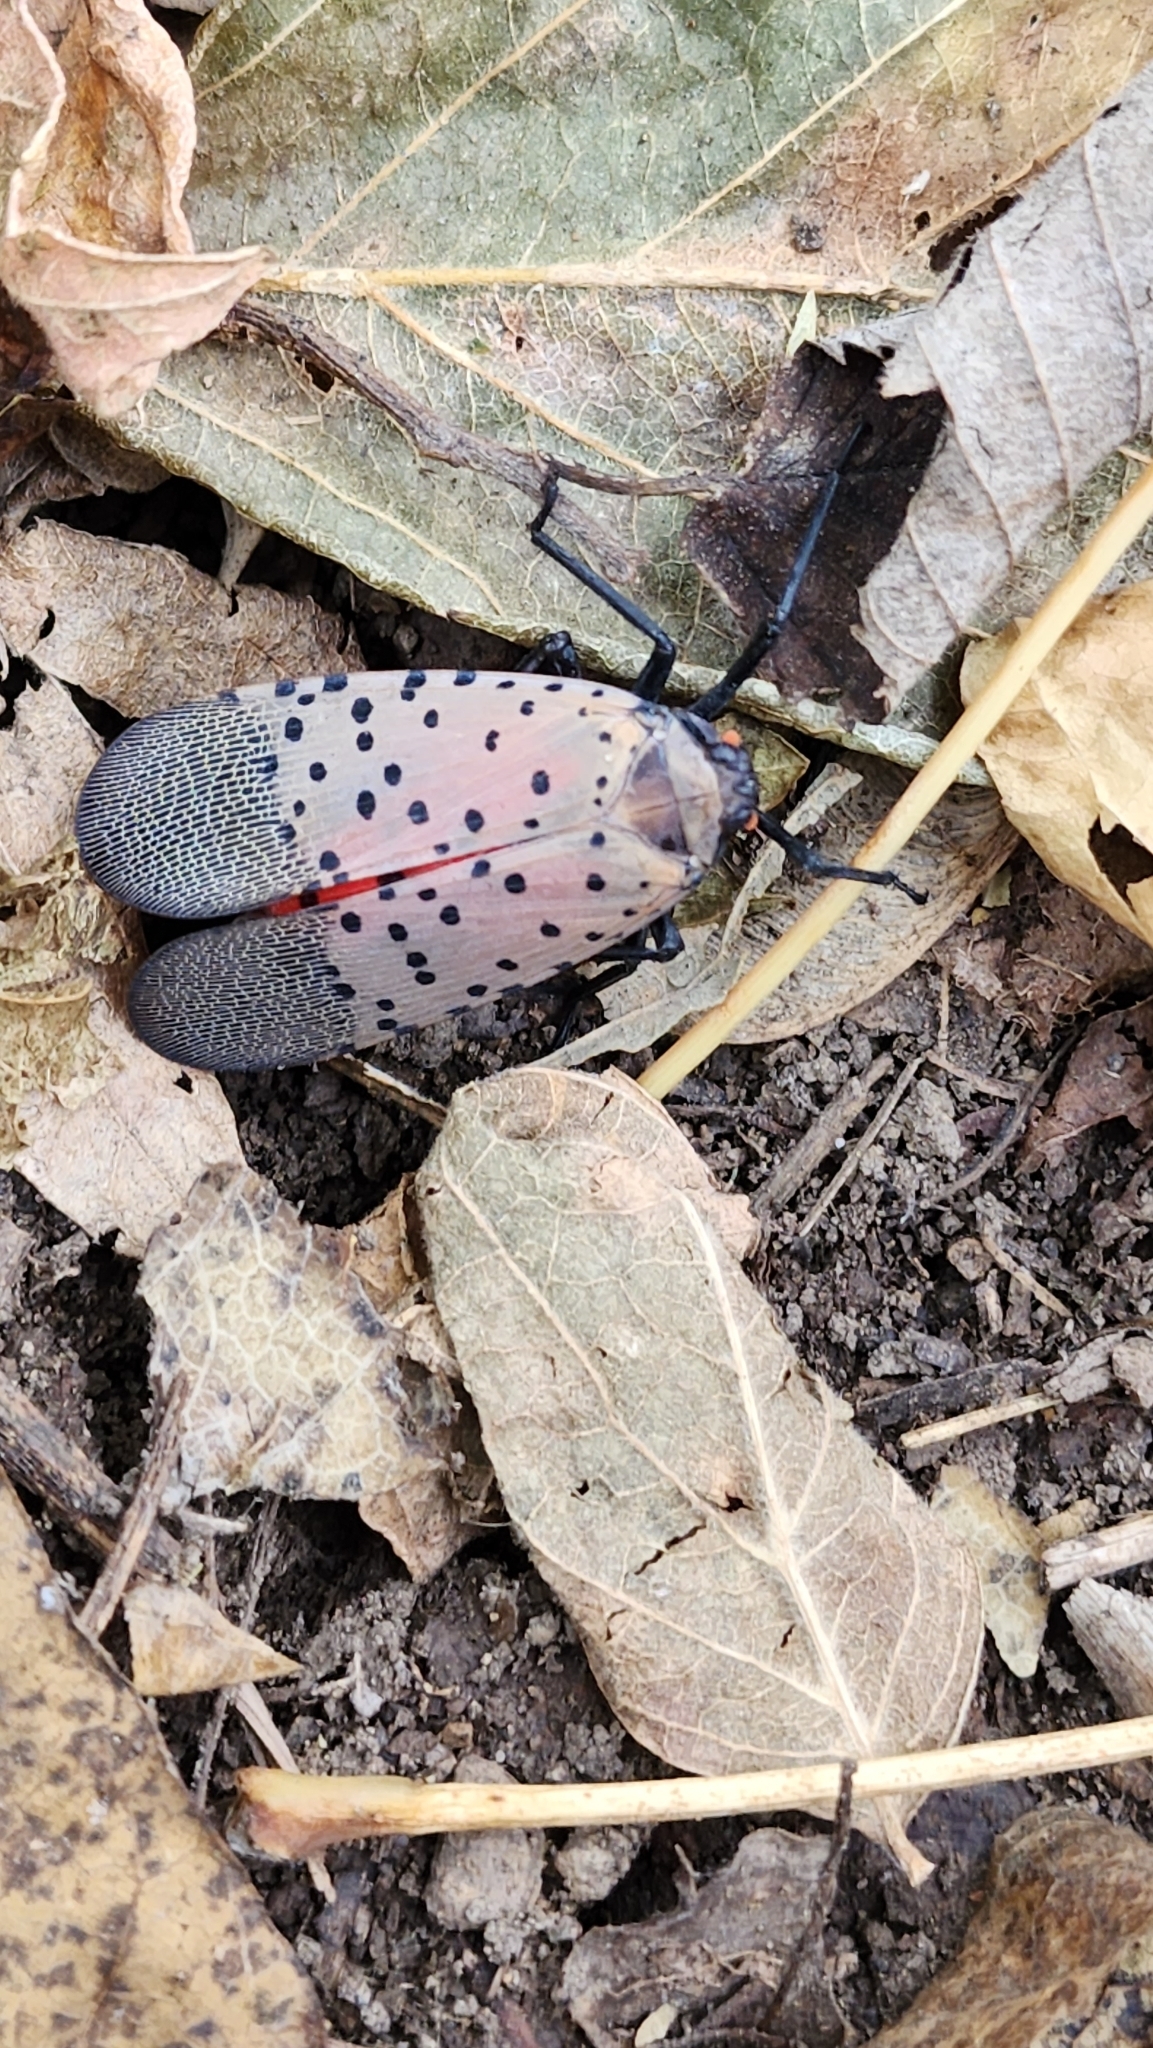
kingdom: Animalia
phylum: Arthropoda
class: Insecta
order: Hemiptera
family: Fulgoridae
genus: Lycorma
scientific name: Lycorma delicatula
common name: Spotted lanternfly
